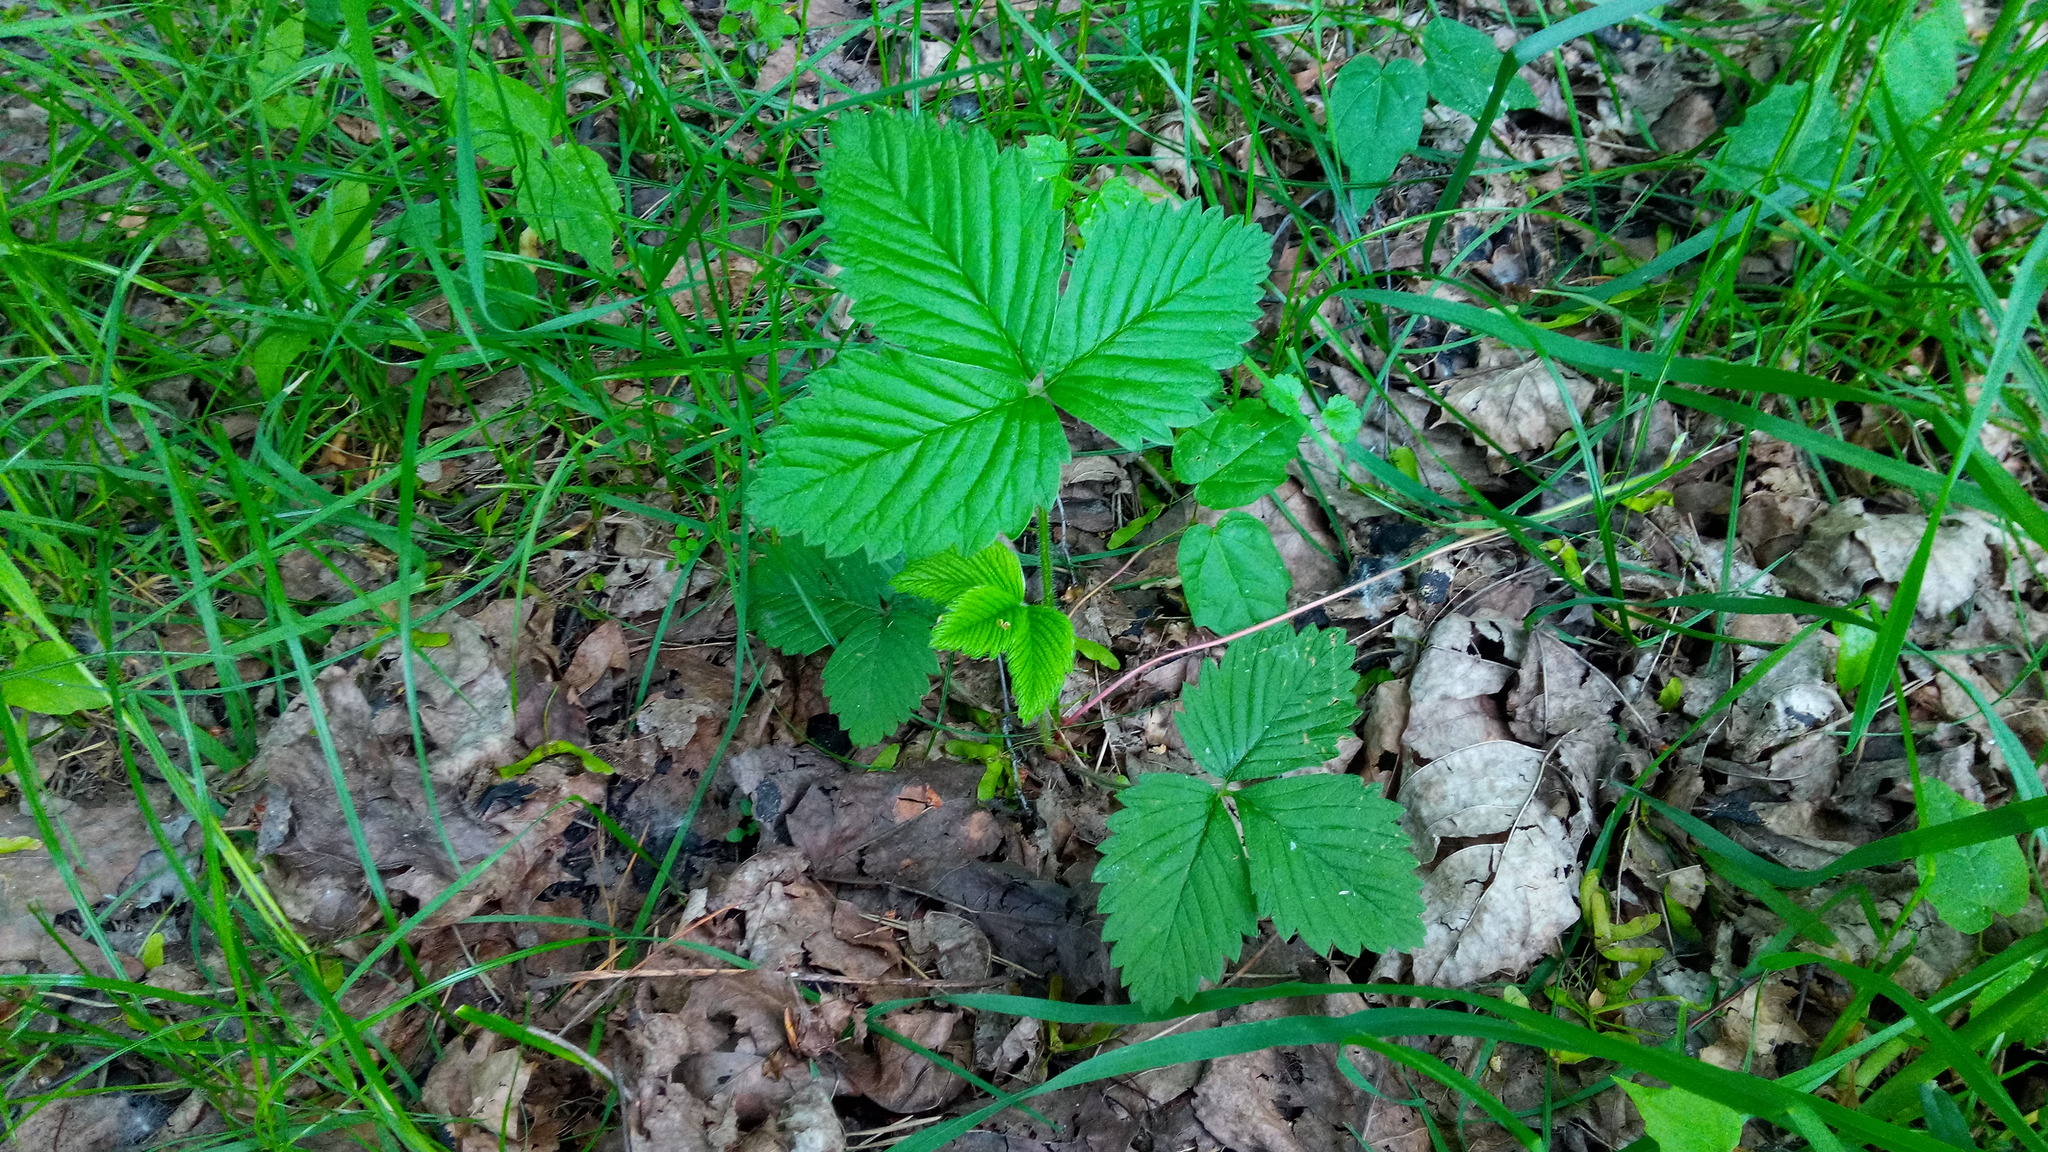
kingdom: Plantae
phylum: Tracheophyta
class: Magnoliopsida
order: Rosales
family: Rosaceae
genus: Fragaria
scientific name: Fragaria moschata
